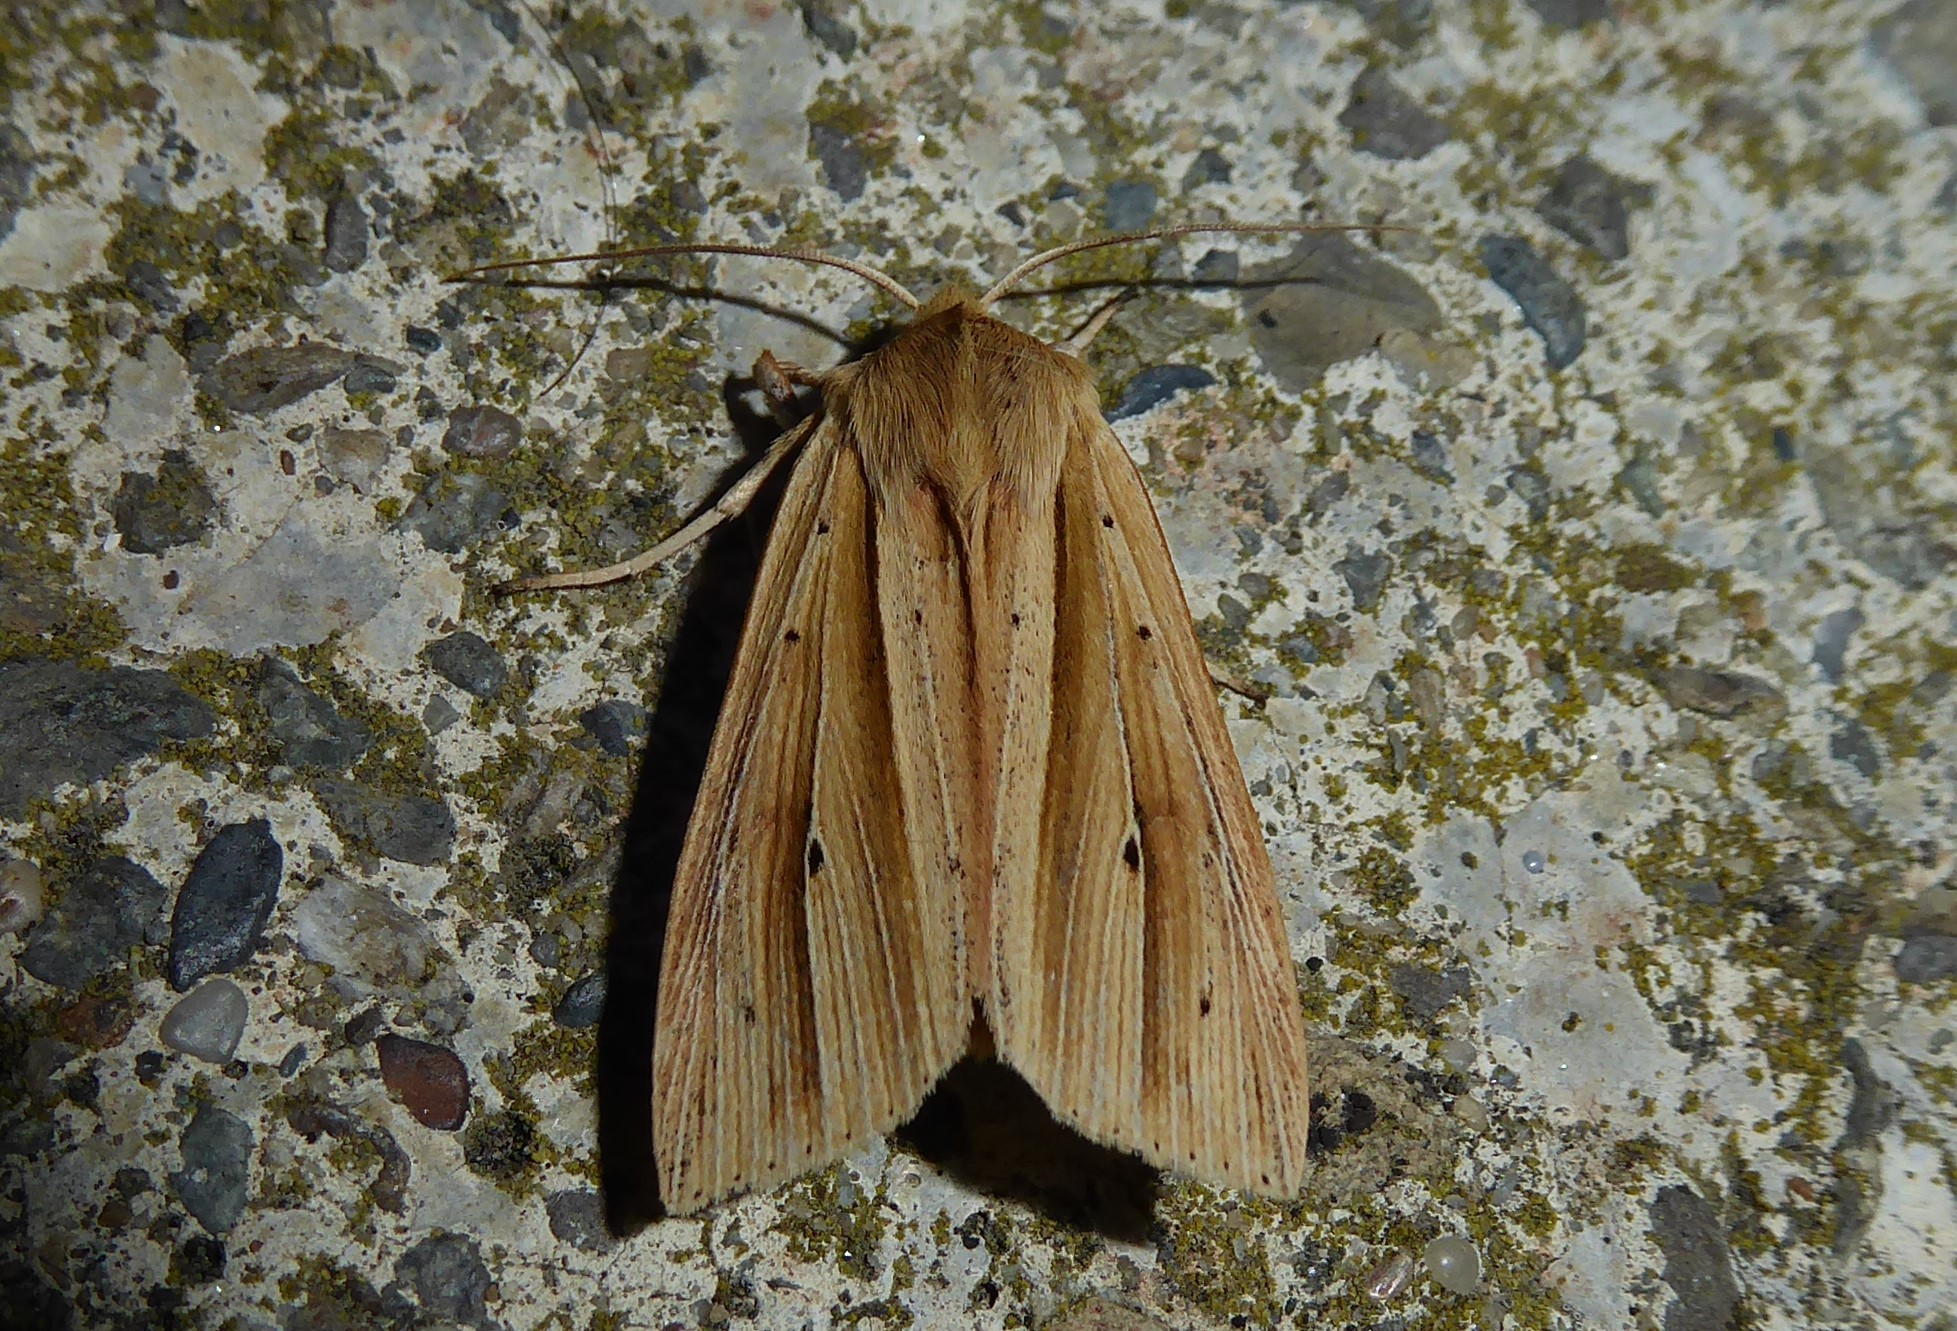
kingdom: Animalia
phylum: Arthropoda
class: Insecta
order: Lepidoptera
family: Noctuidae
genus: Ichneutica
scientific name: Ichneutica sulcana
